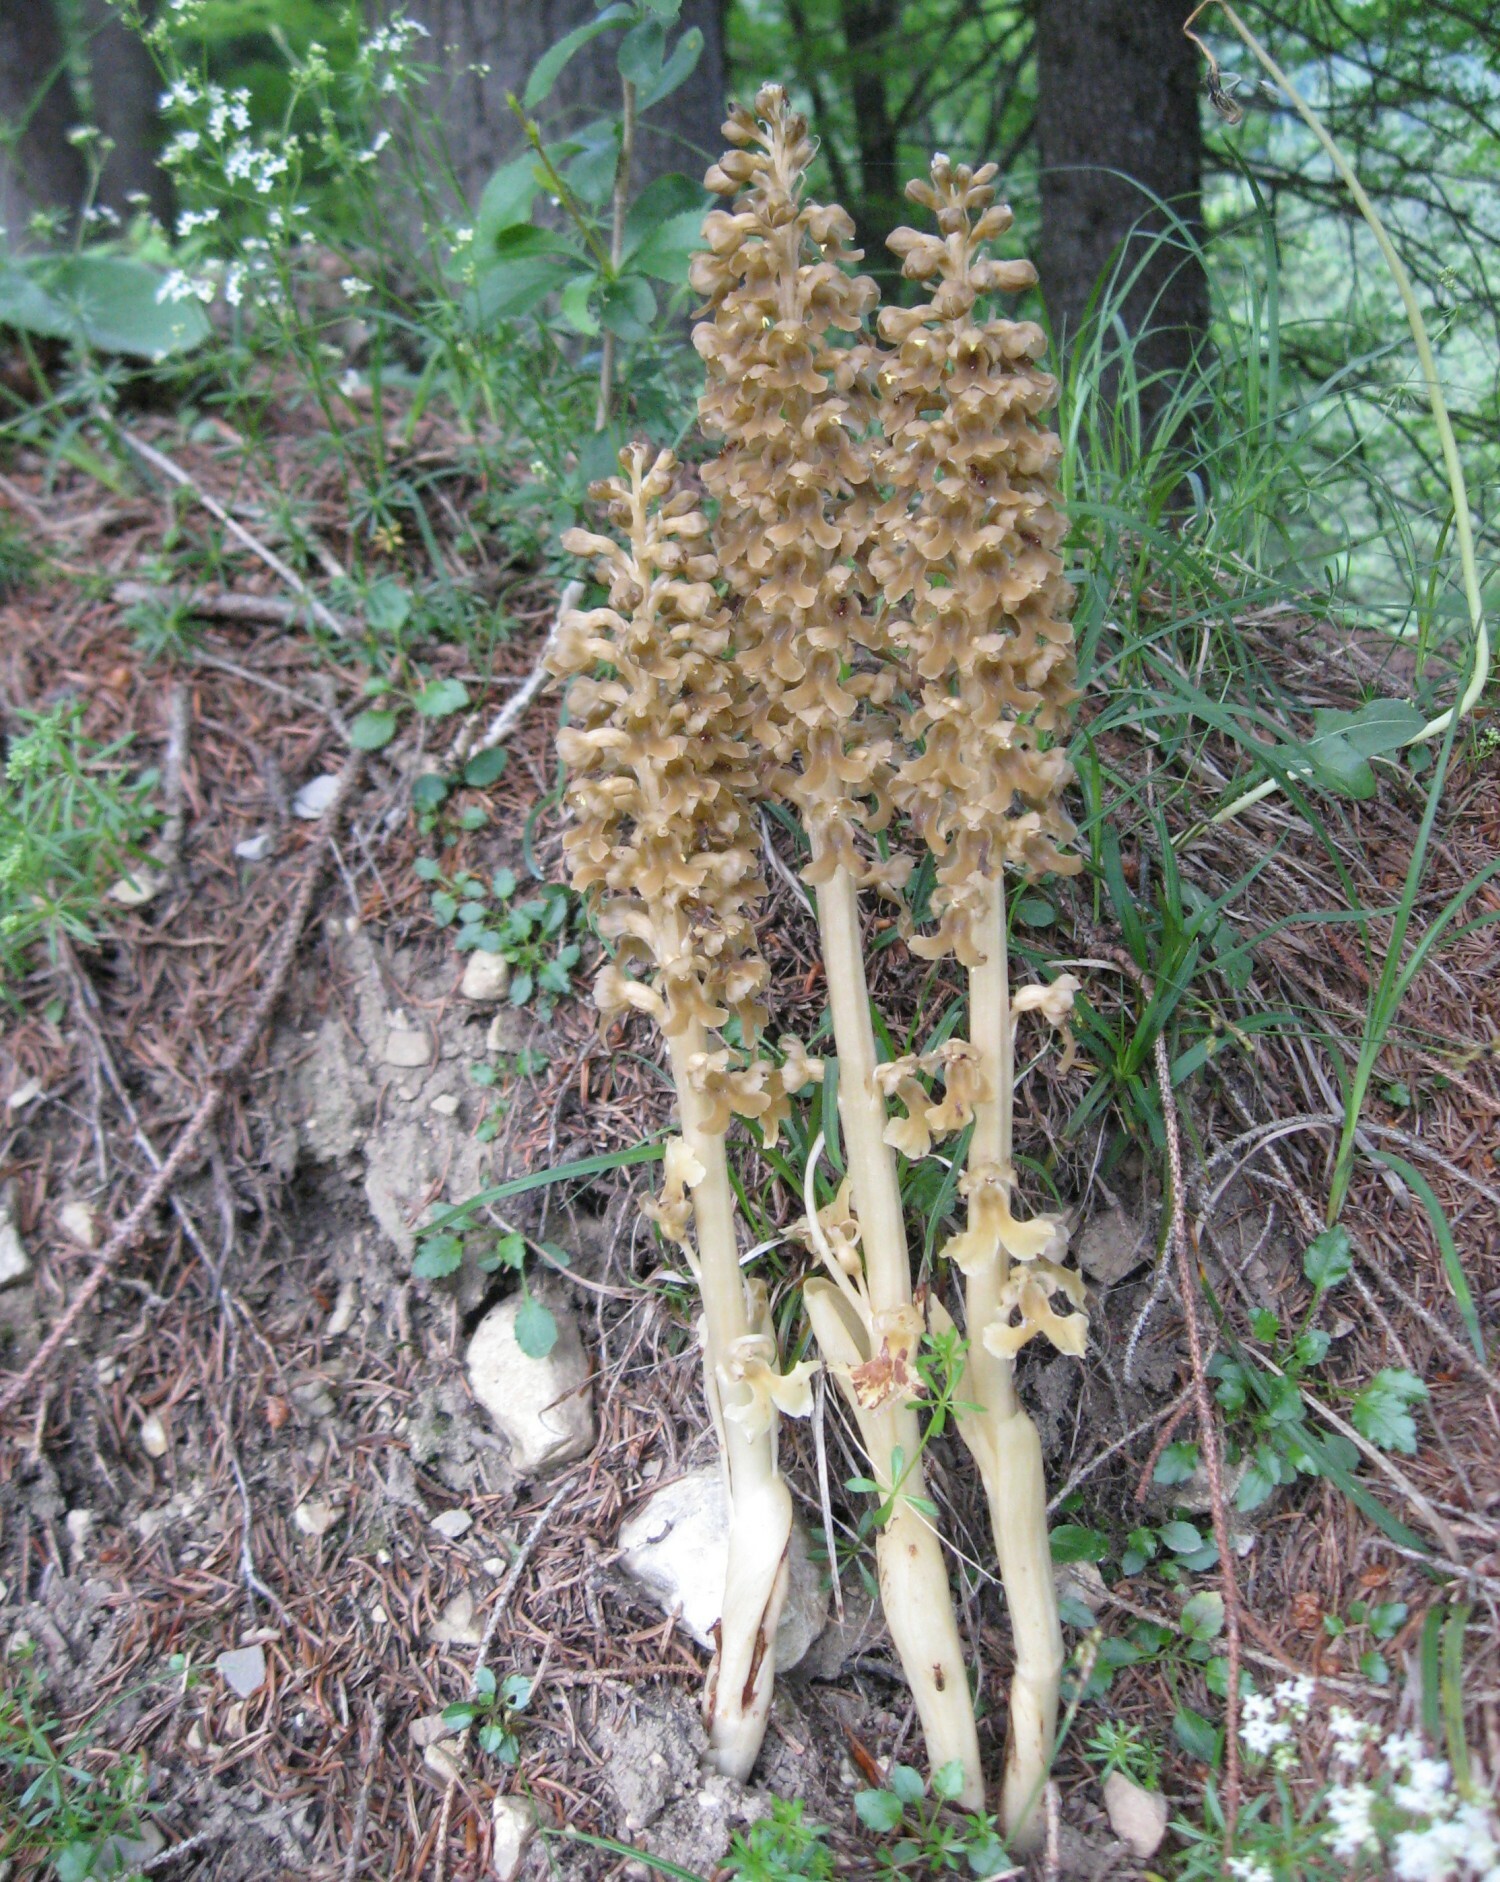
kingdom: Plantae
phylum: Tracheophyta
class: Liliopsida
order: Asparagales
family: Orchidaceae
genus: Neottia
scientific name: Neottia nidus-avis
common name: Bird's-nest orchid
